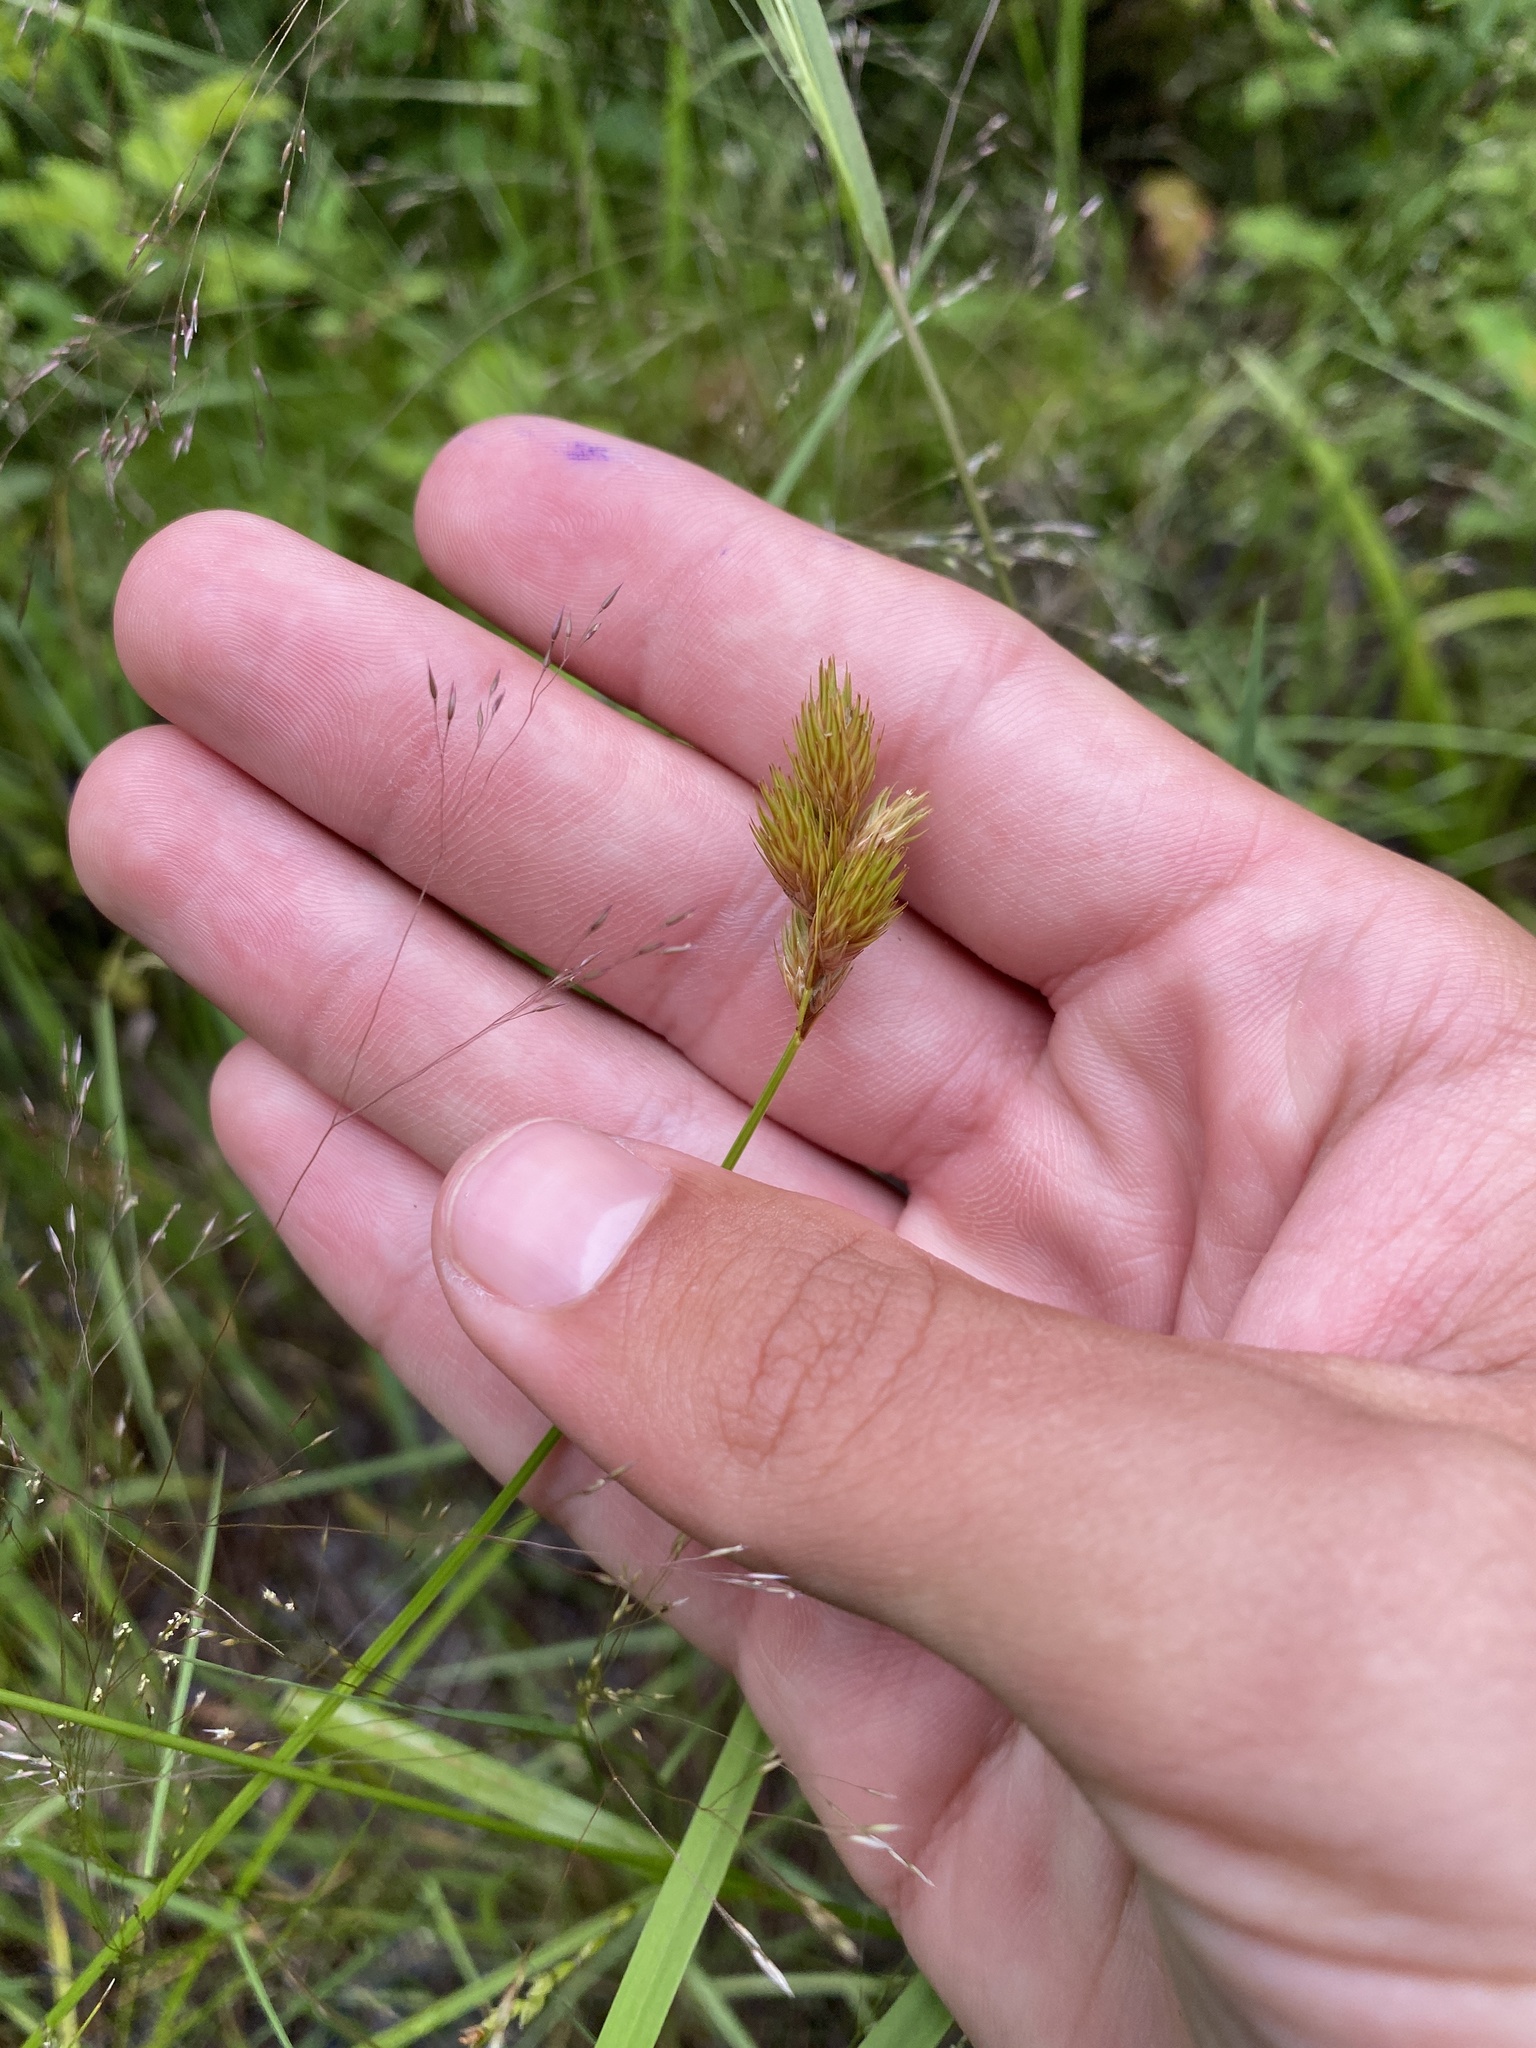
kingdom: Plantae
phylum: Tracheophyta
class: Liliopsida
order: Poales
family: Cyperaceae
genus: Carex
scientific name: Carex scoparia
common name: Broom sedge
